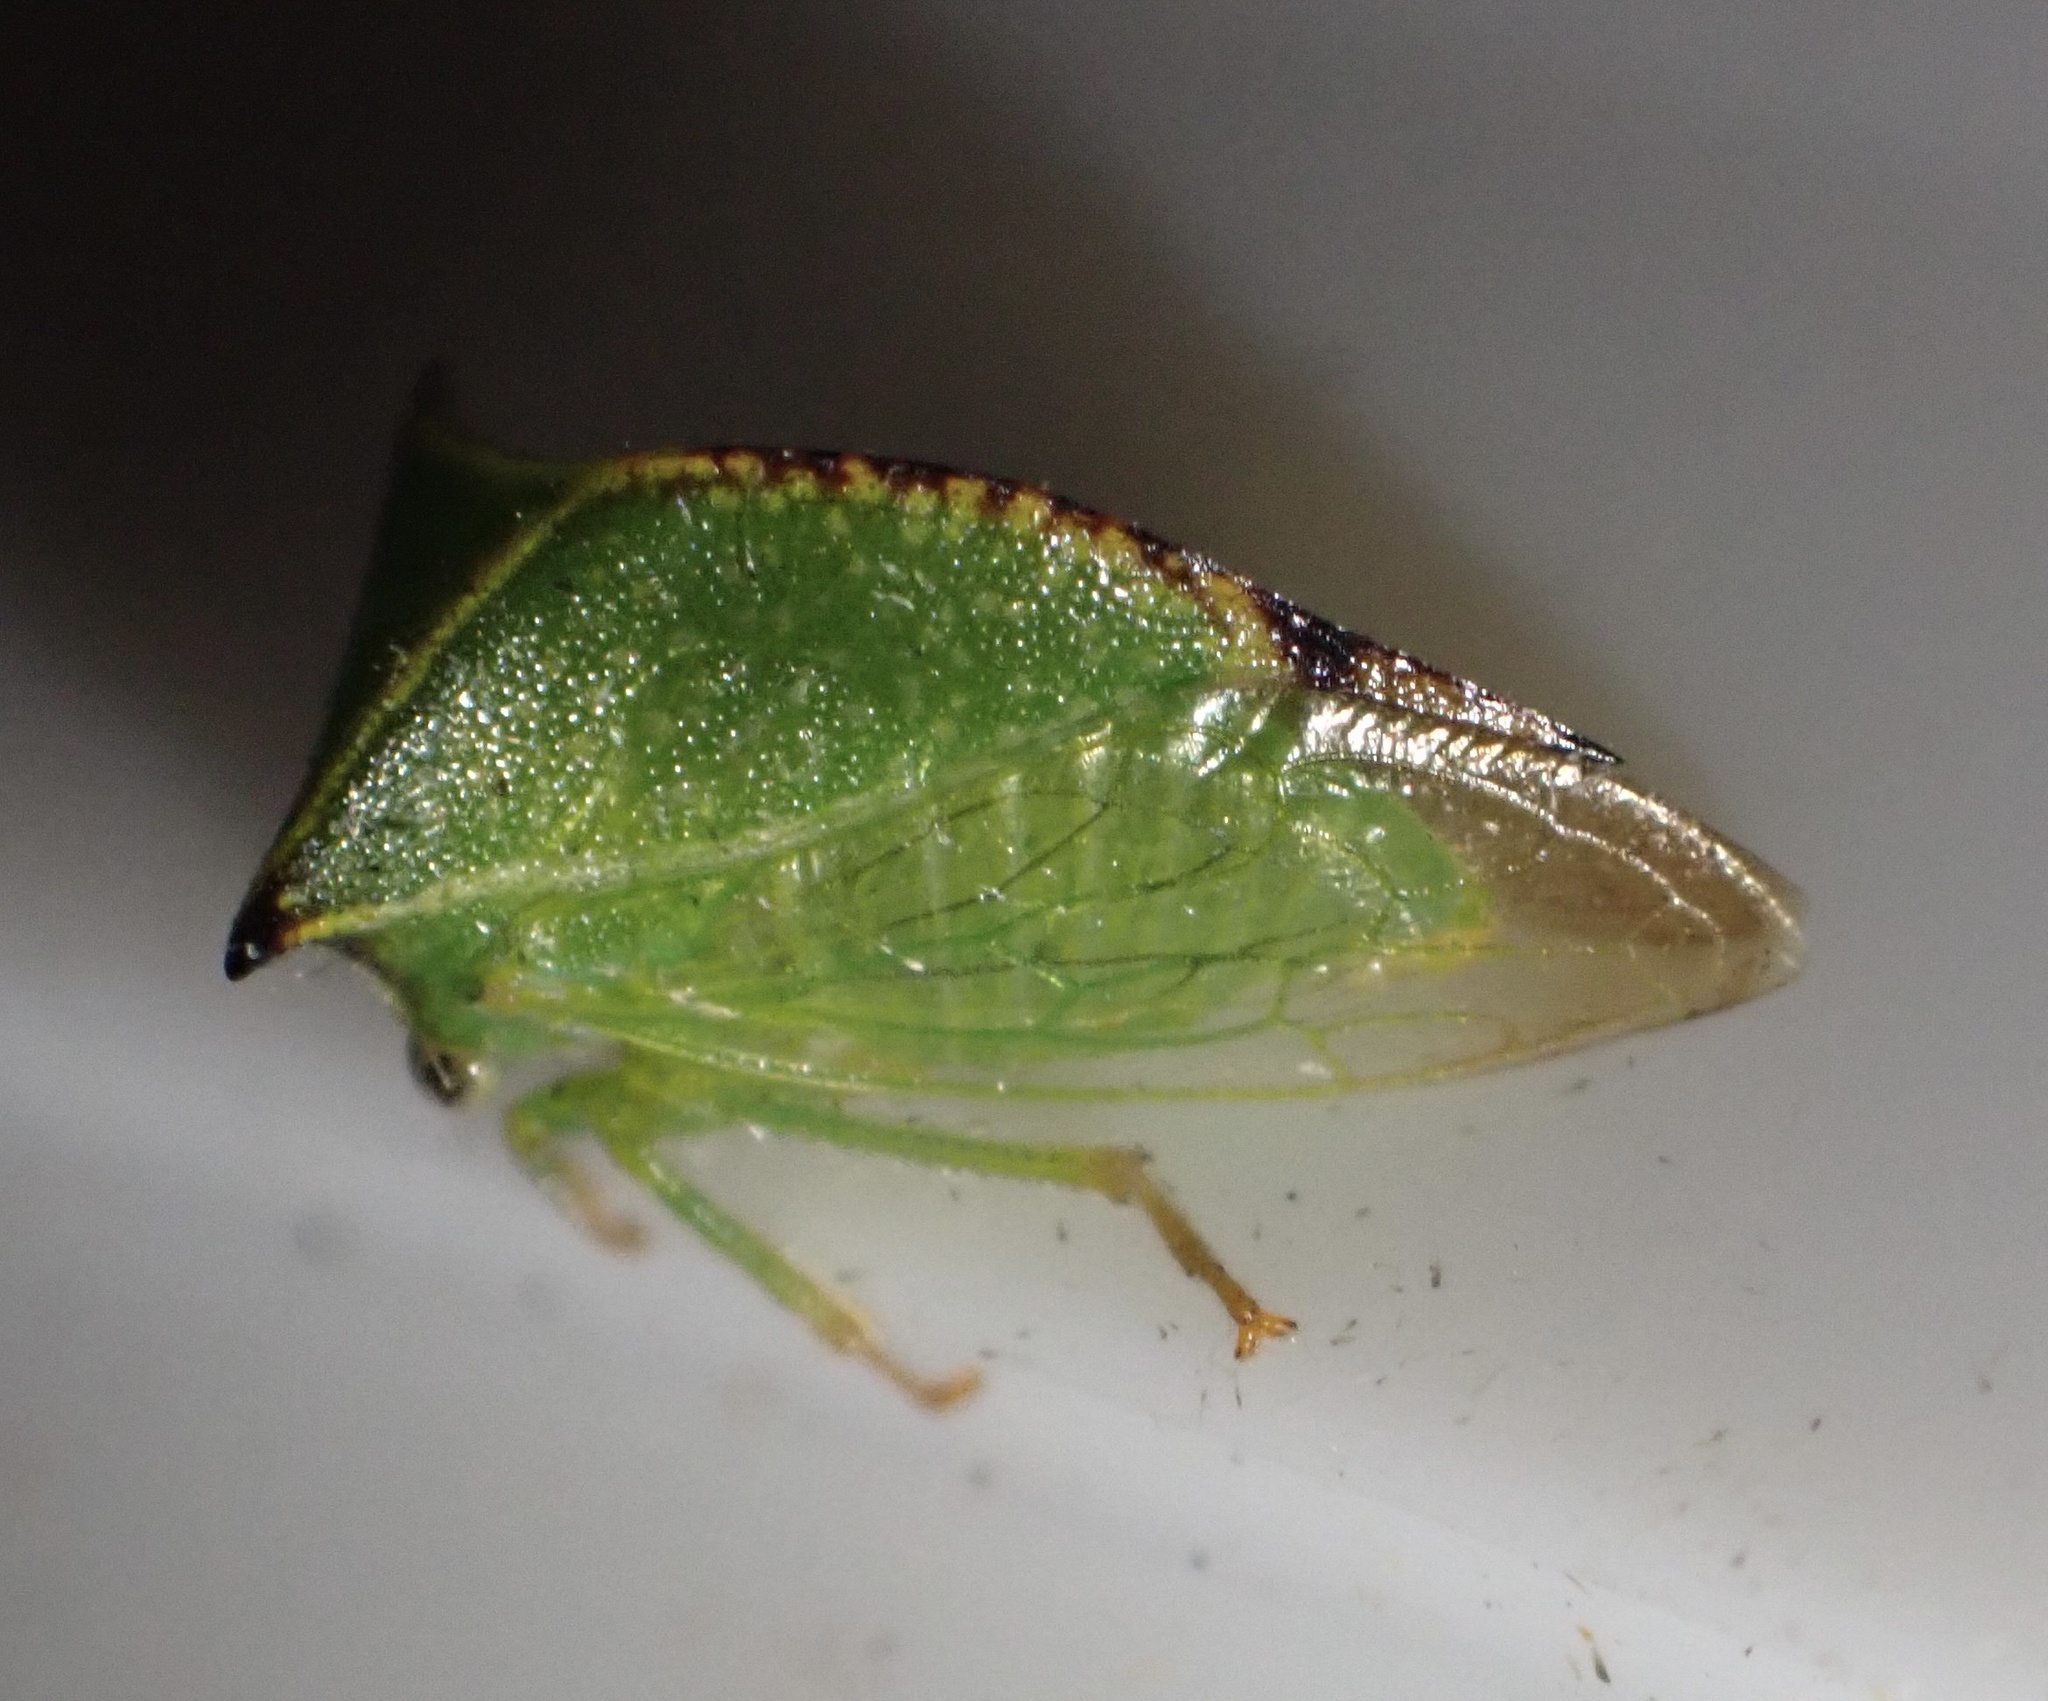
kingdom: Animalia
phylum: Arthropoda
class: Insecta
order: Hemiptera
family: Membracidae
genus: Stictocephala
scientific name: Stictocephala bisonia
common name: American buffalo treehopper
